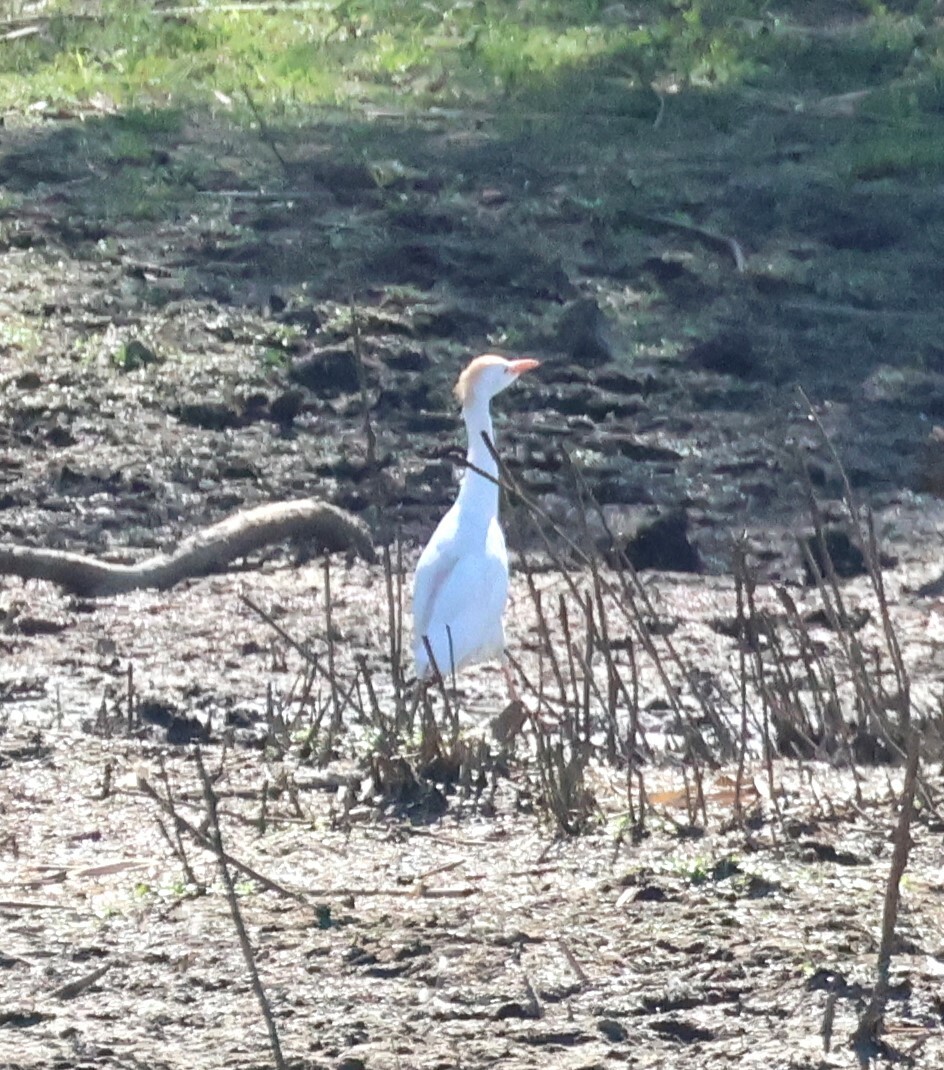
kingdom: Animalia
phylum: Chordata
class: Aves
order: Pelecaniformes
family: Ardeidae
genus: Bubulcus
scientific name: Bubulcus ibis
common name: Cattle egret
